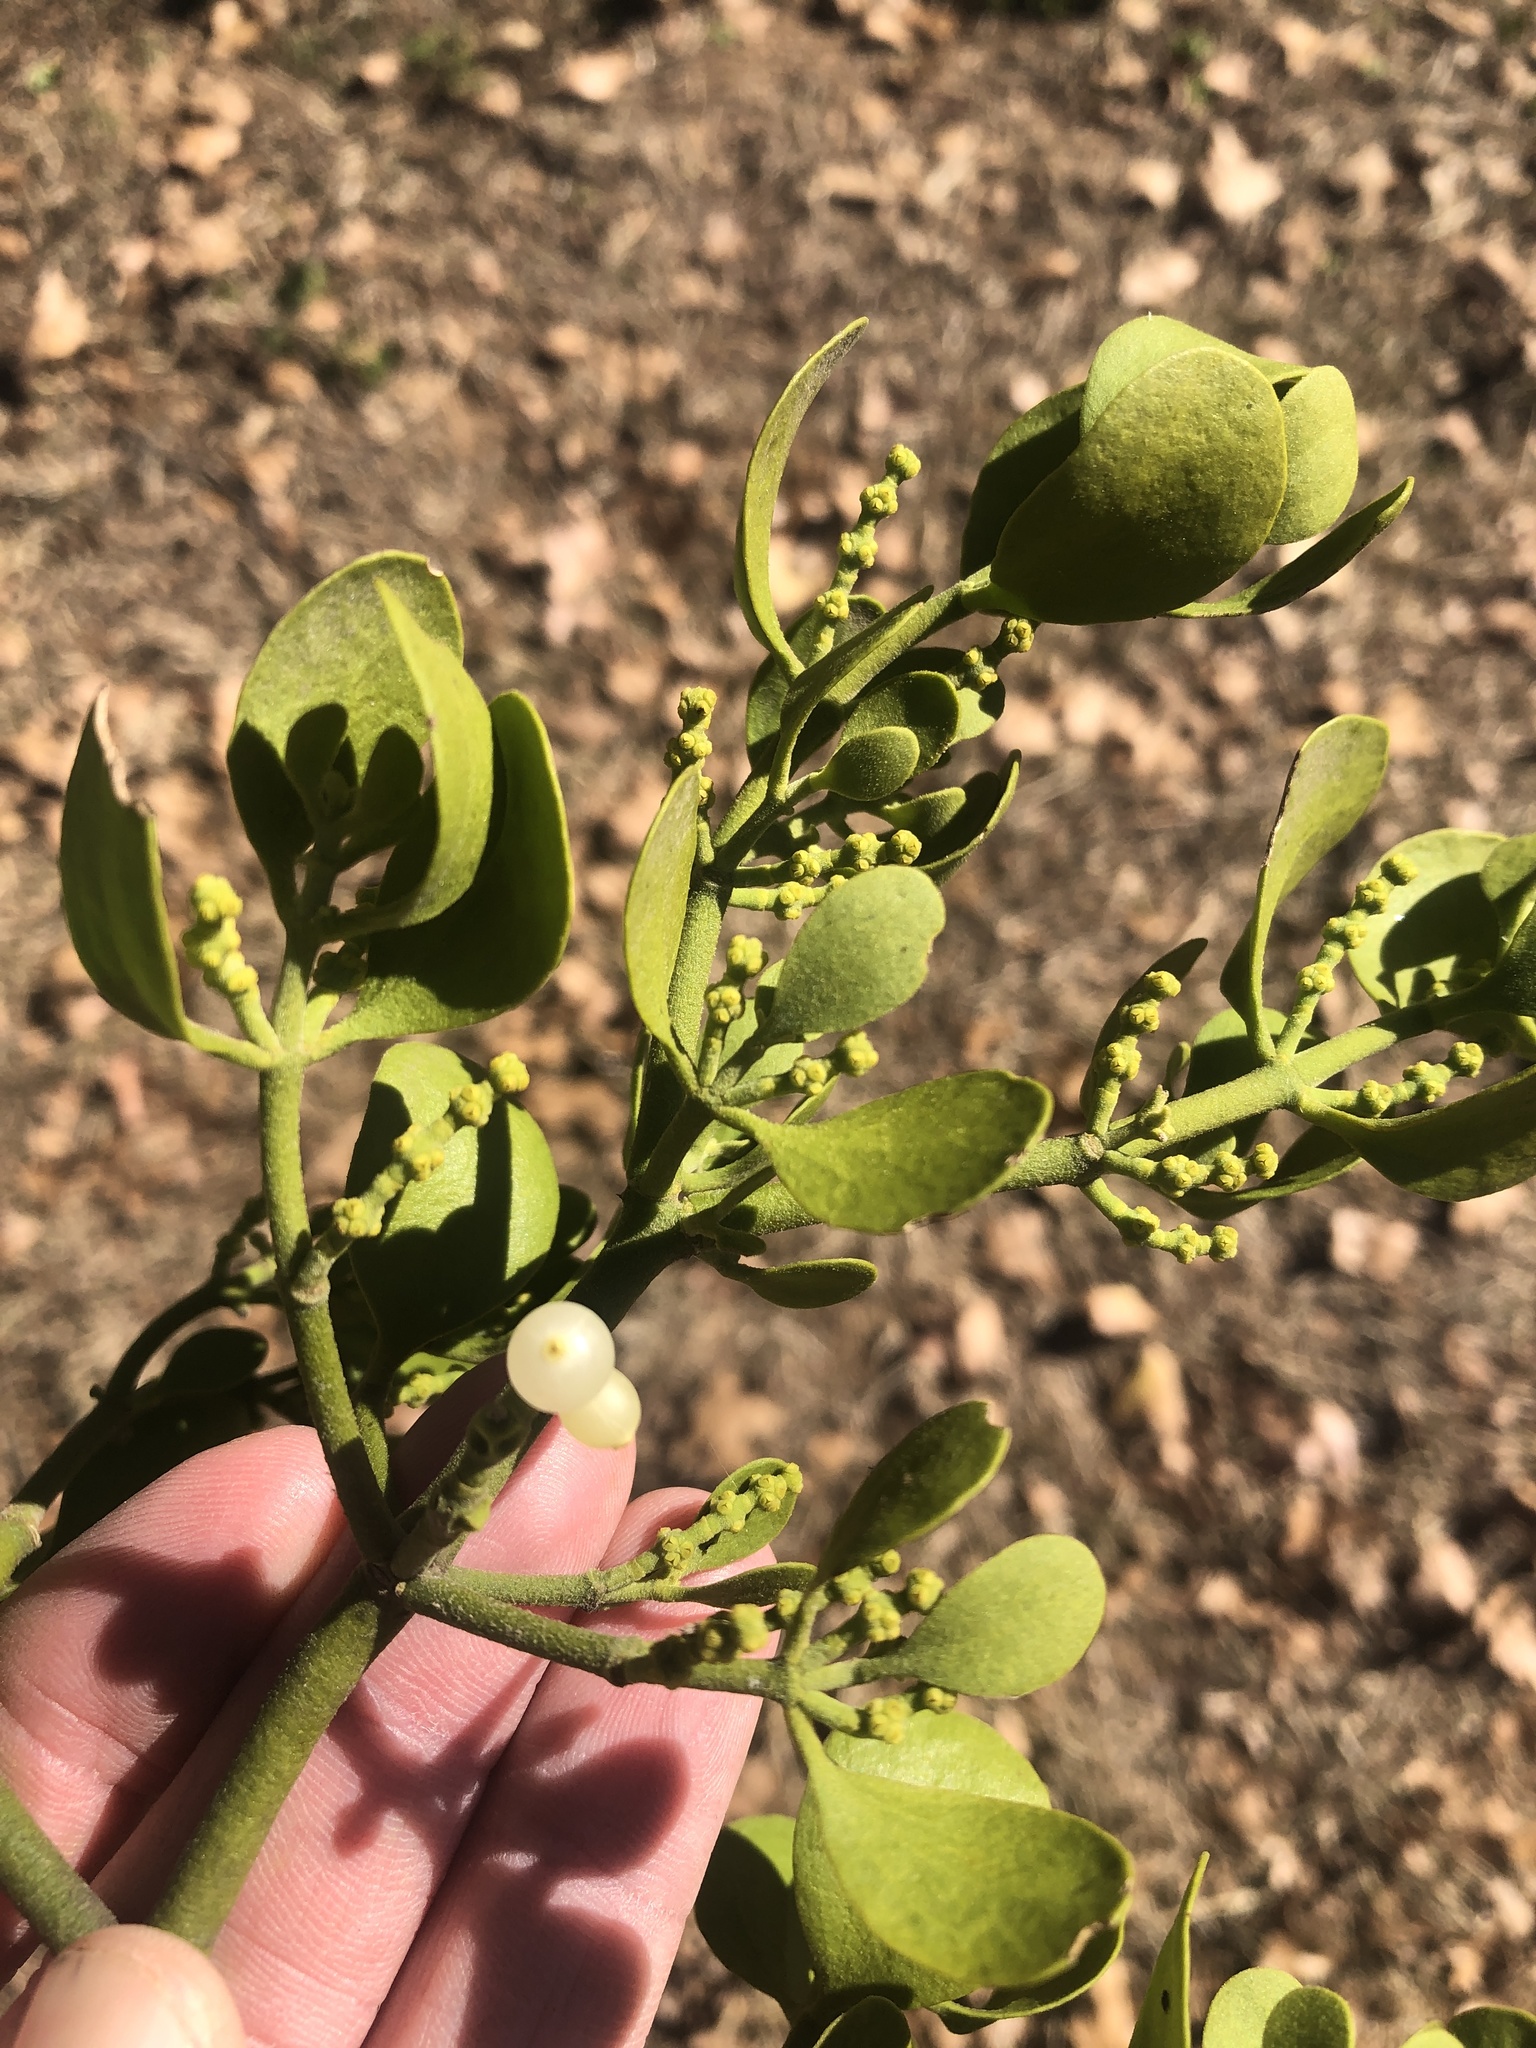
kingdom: Plantae
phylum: Tracheophyta
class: Magnoliopsida
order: Santalales
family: Viscaceae
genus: Phoradendron
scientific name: Phoradendron leucarpum
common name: Pacific mistletoe
